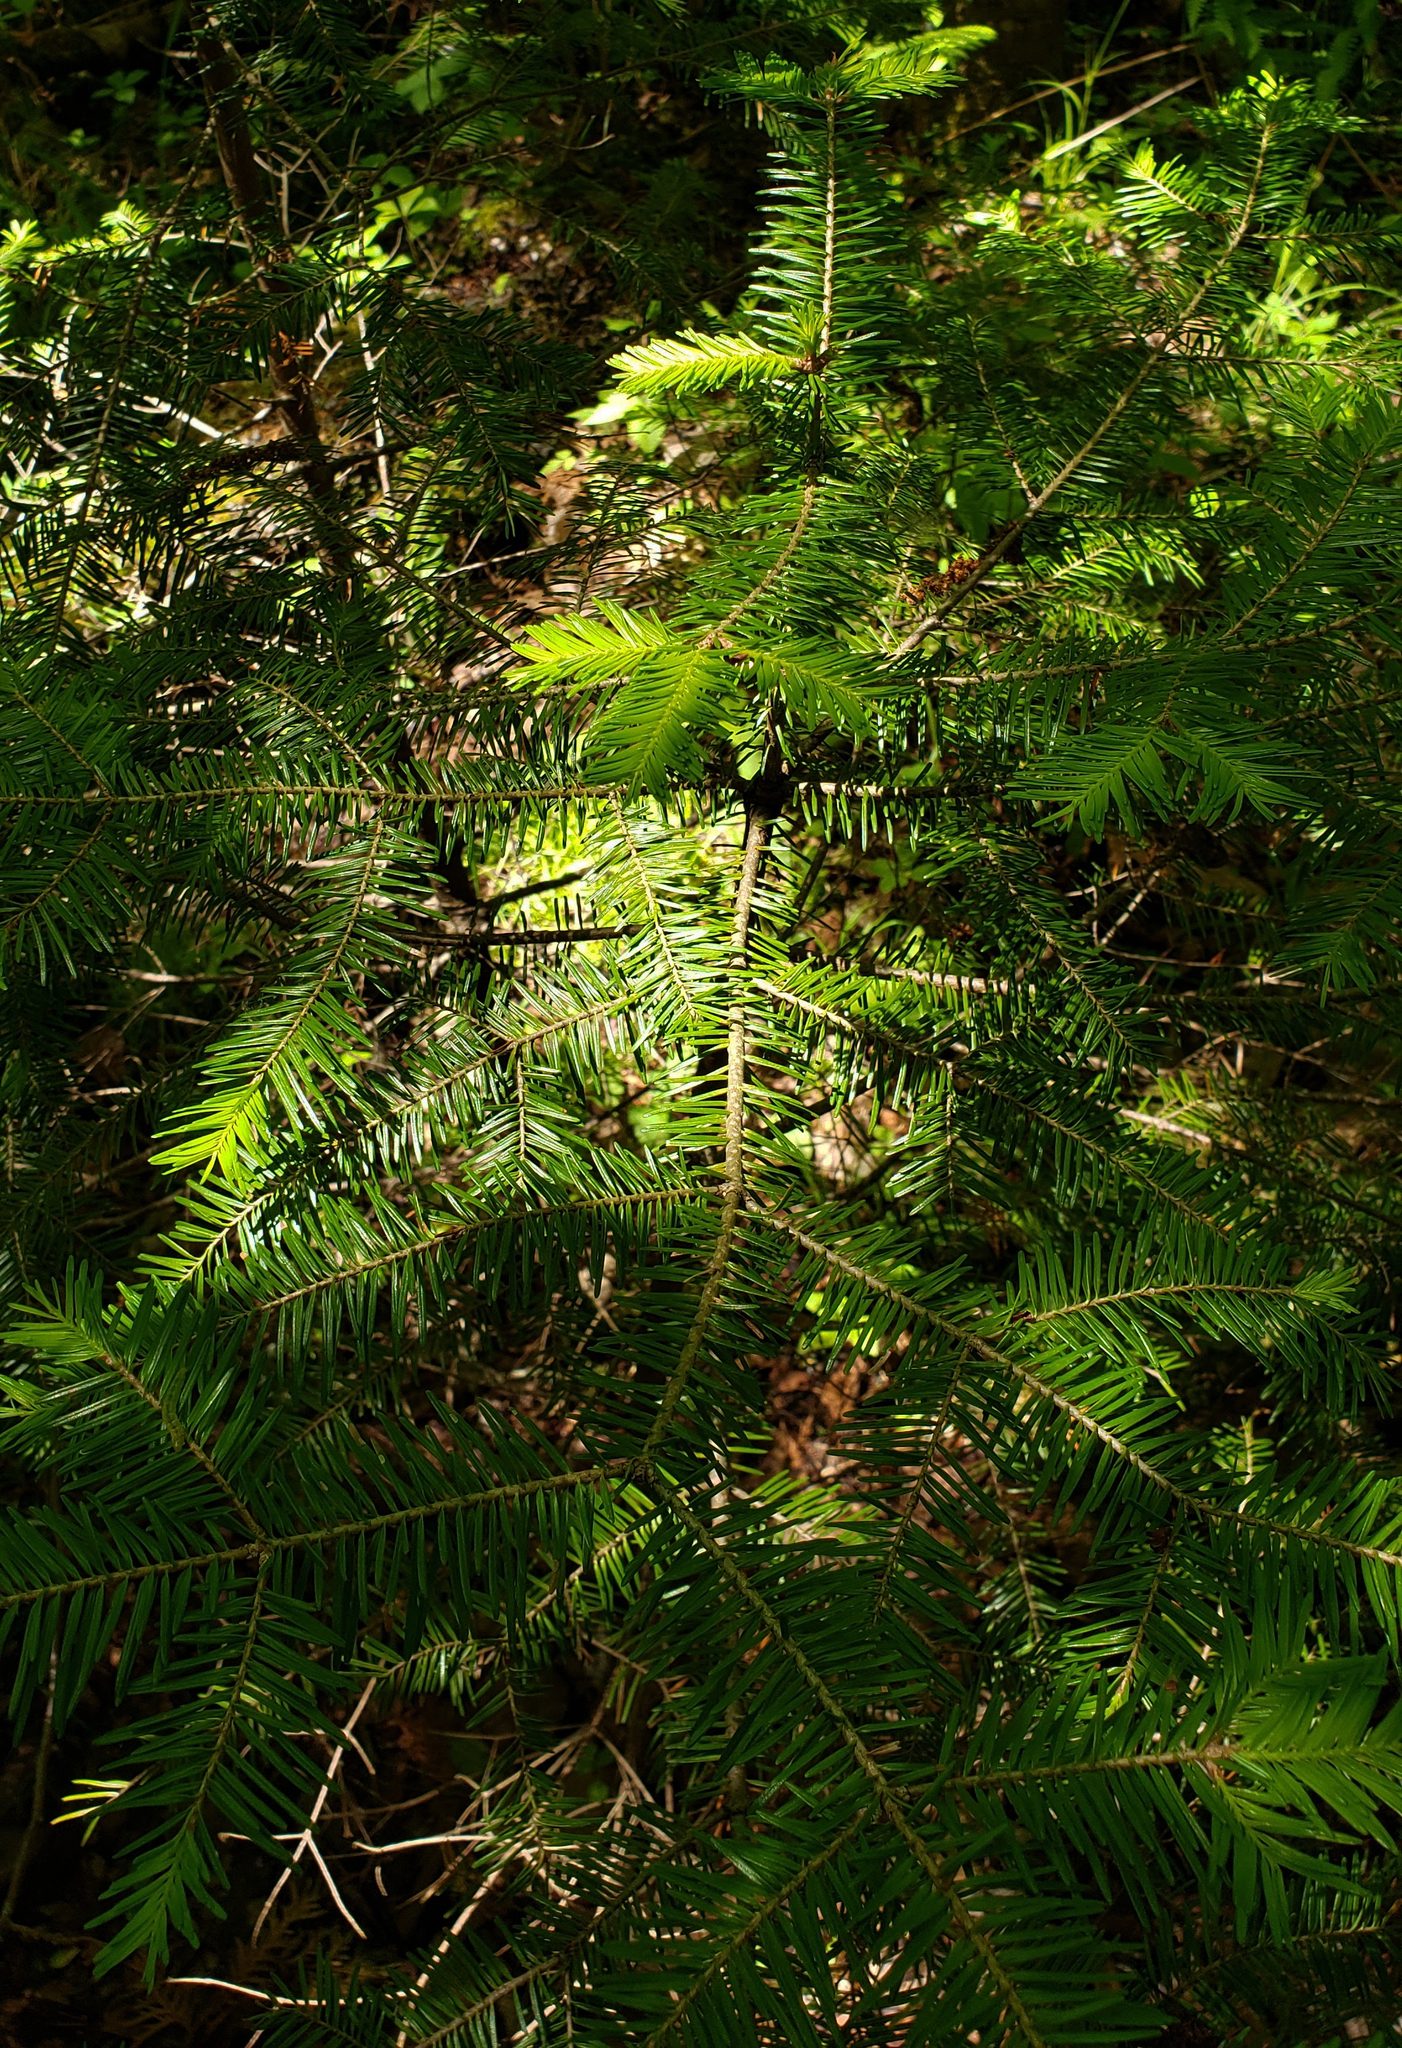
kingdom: Plantae
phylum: Tracheophyta
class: Pinopsida
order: Pinales
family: Pinaceae
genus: Abies
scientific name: Abies balsamea
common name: Balsam fir
